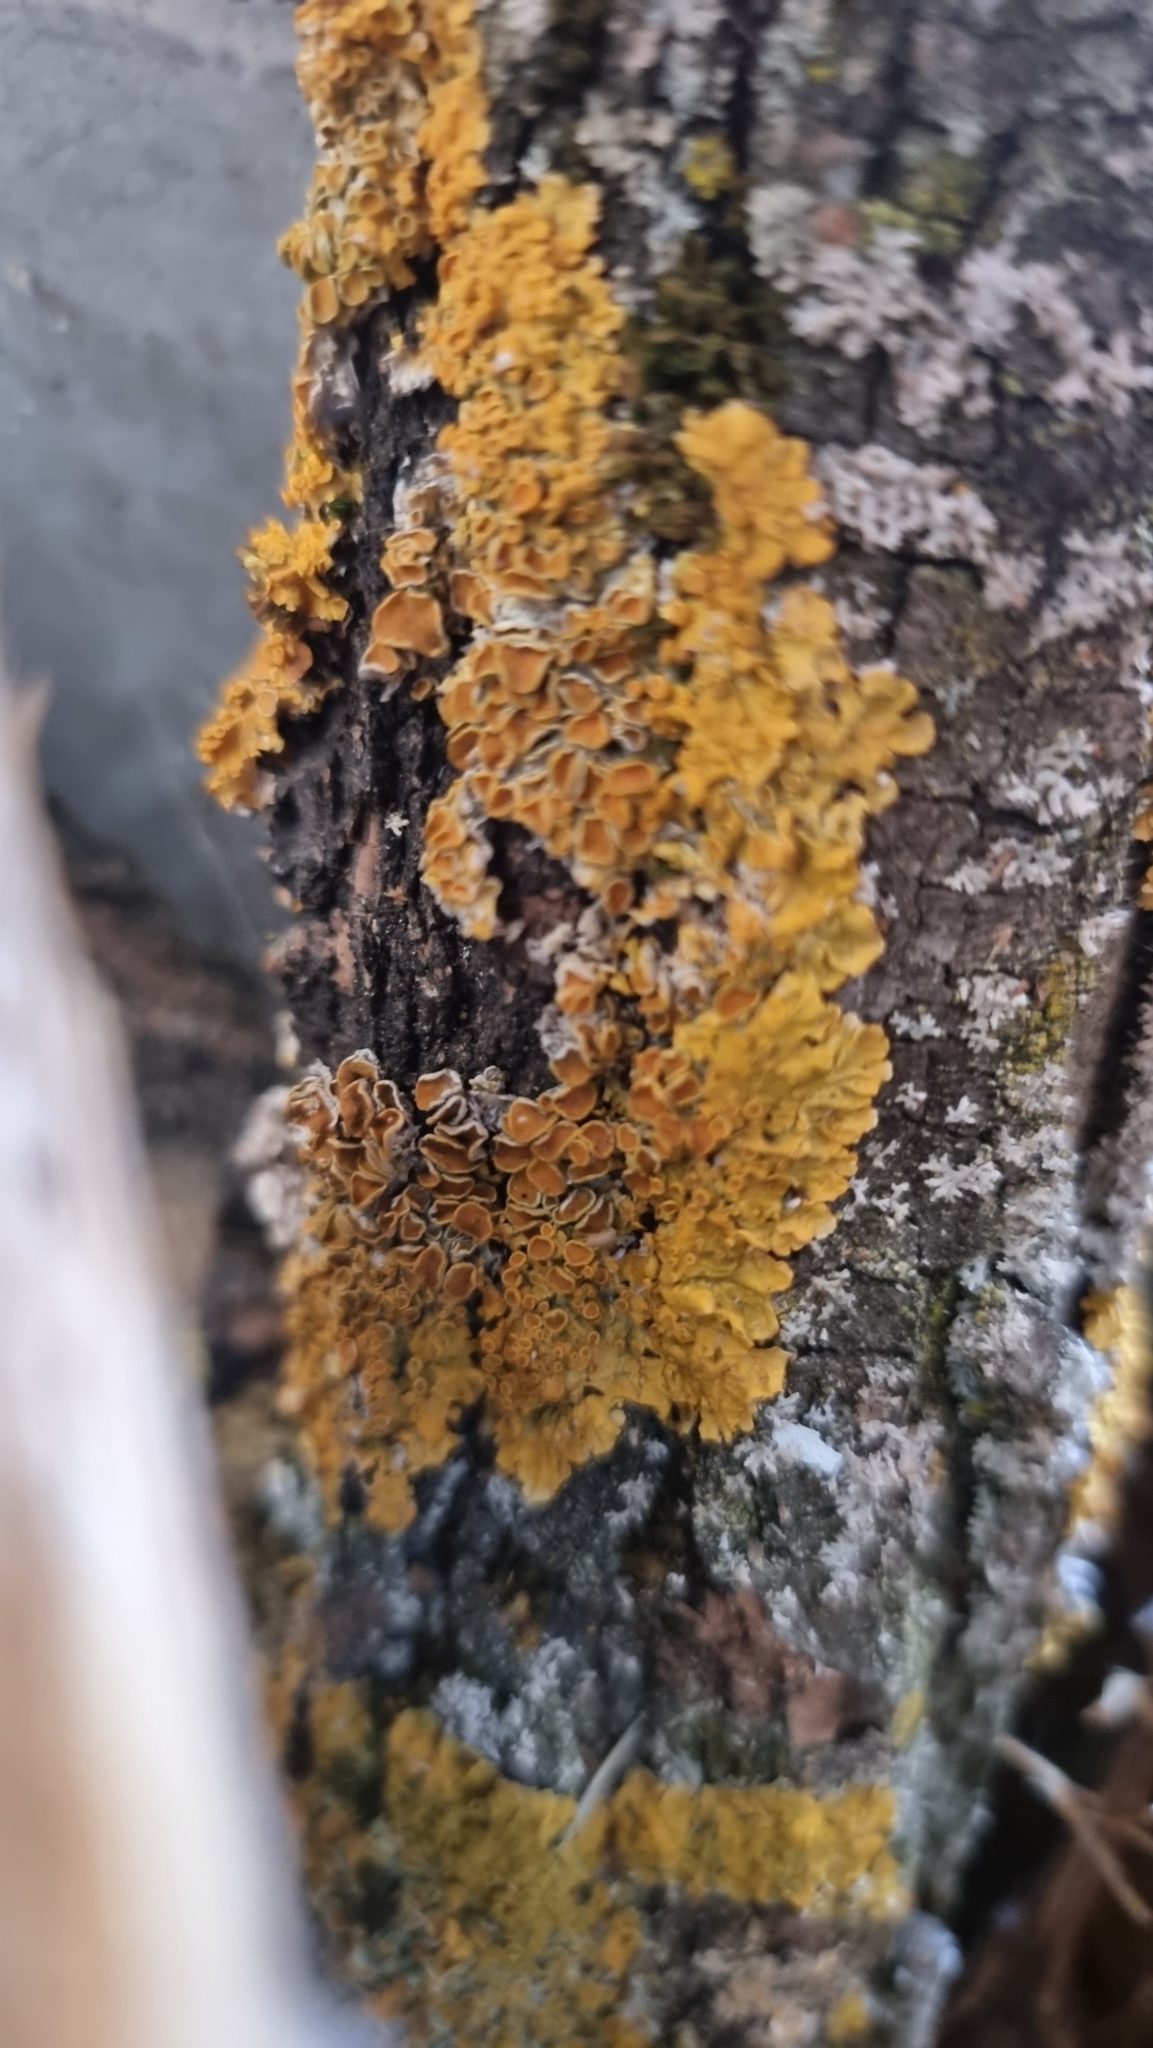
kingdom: Fungi
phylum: Ascomycota
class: Lecanoromycetes
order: Teloschistales
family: Teloschistaceae
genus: Xanthoria
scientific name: Xanthoria parietina
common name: Common orange lichen
